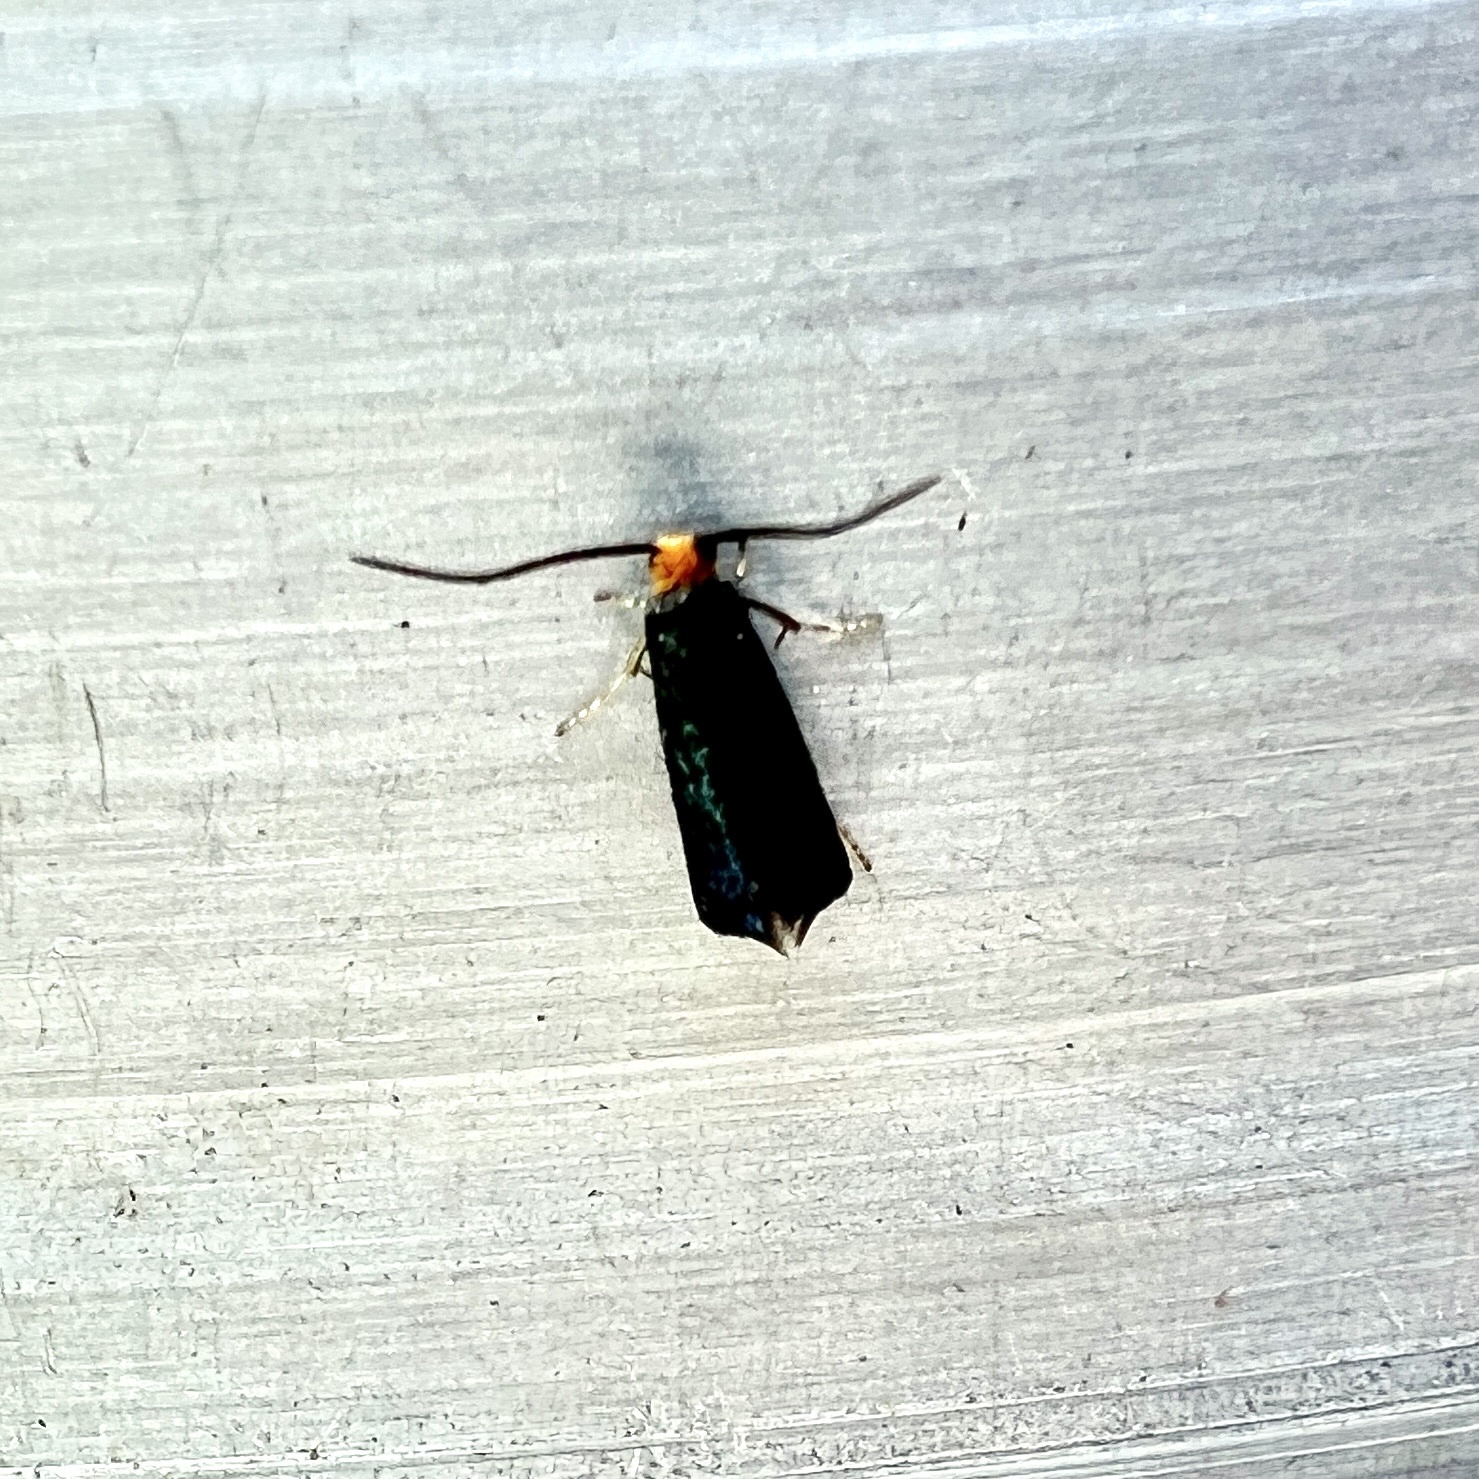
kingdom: Animalia
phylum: Arthropoda
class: Insecta
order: Lepidoptera
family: Incurvariidae
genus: Paraclemensia
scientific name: Paraclemensia acerifoliella
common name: Maple leafcutter
